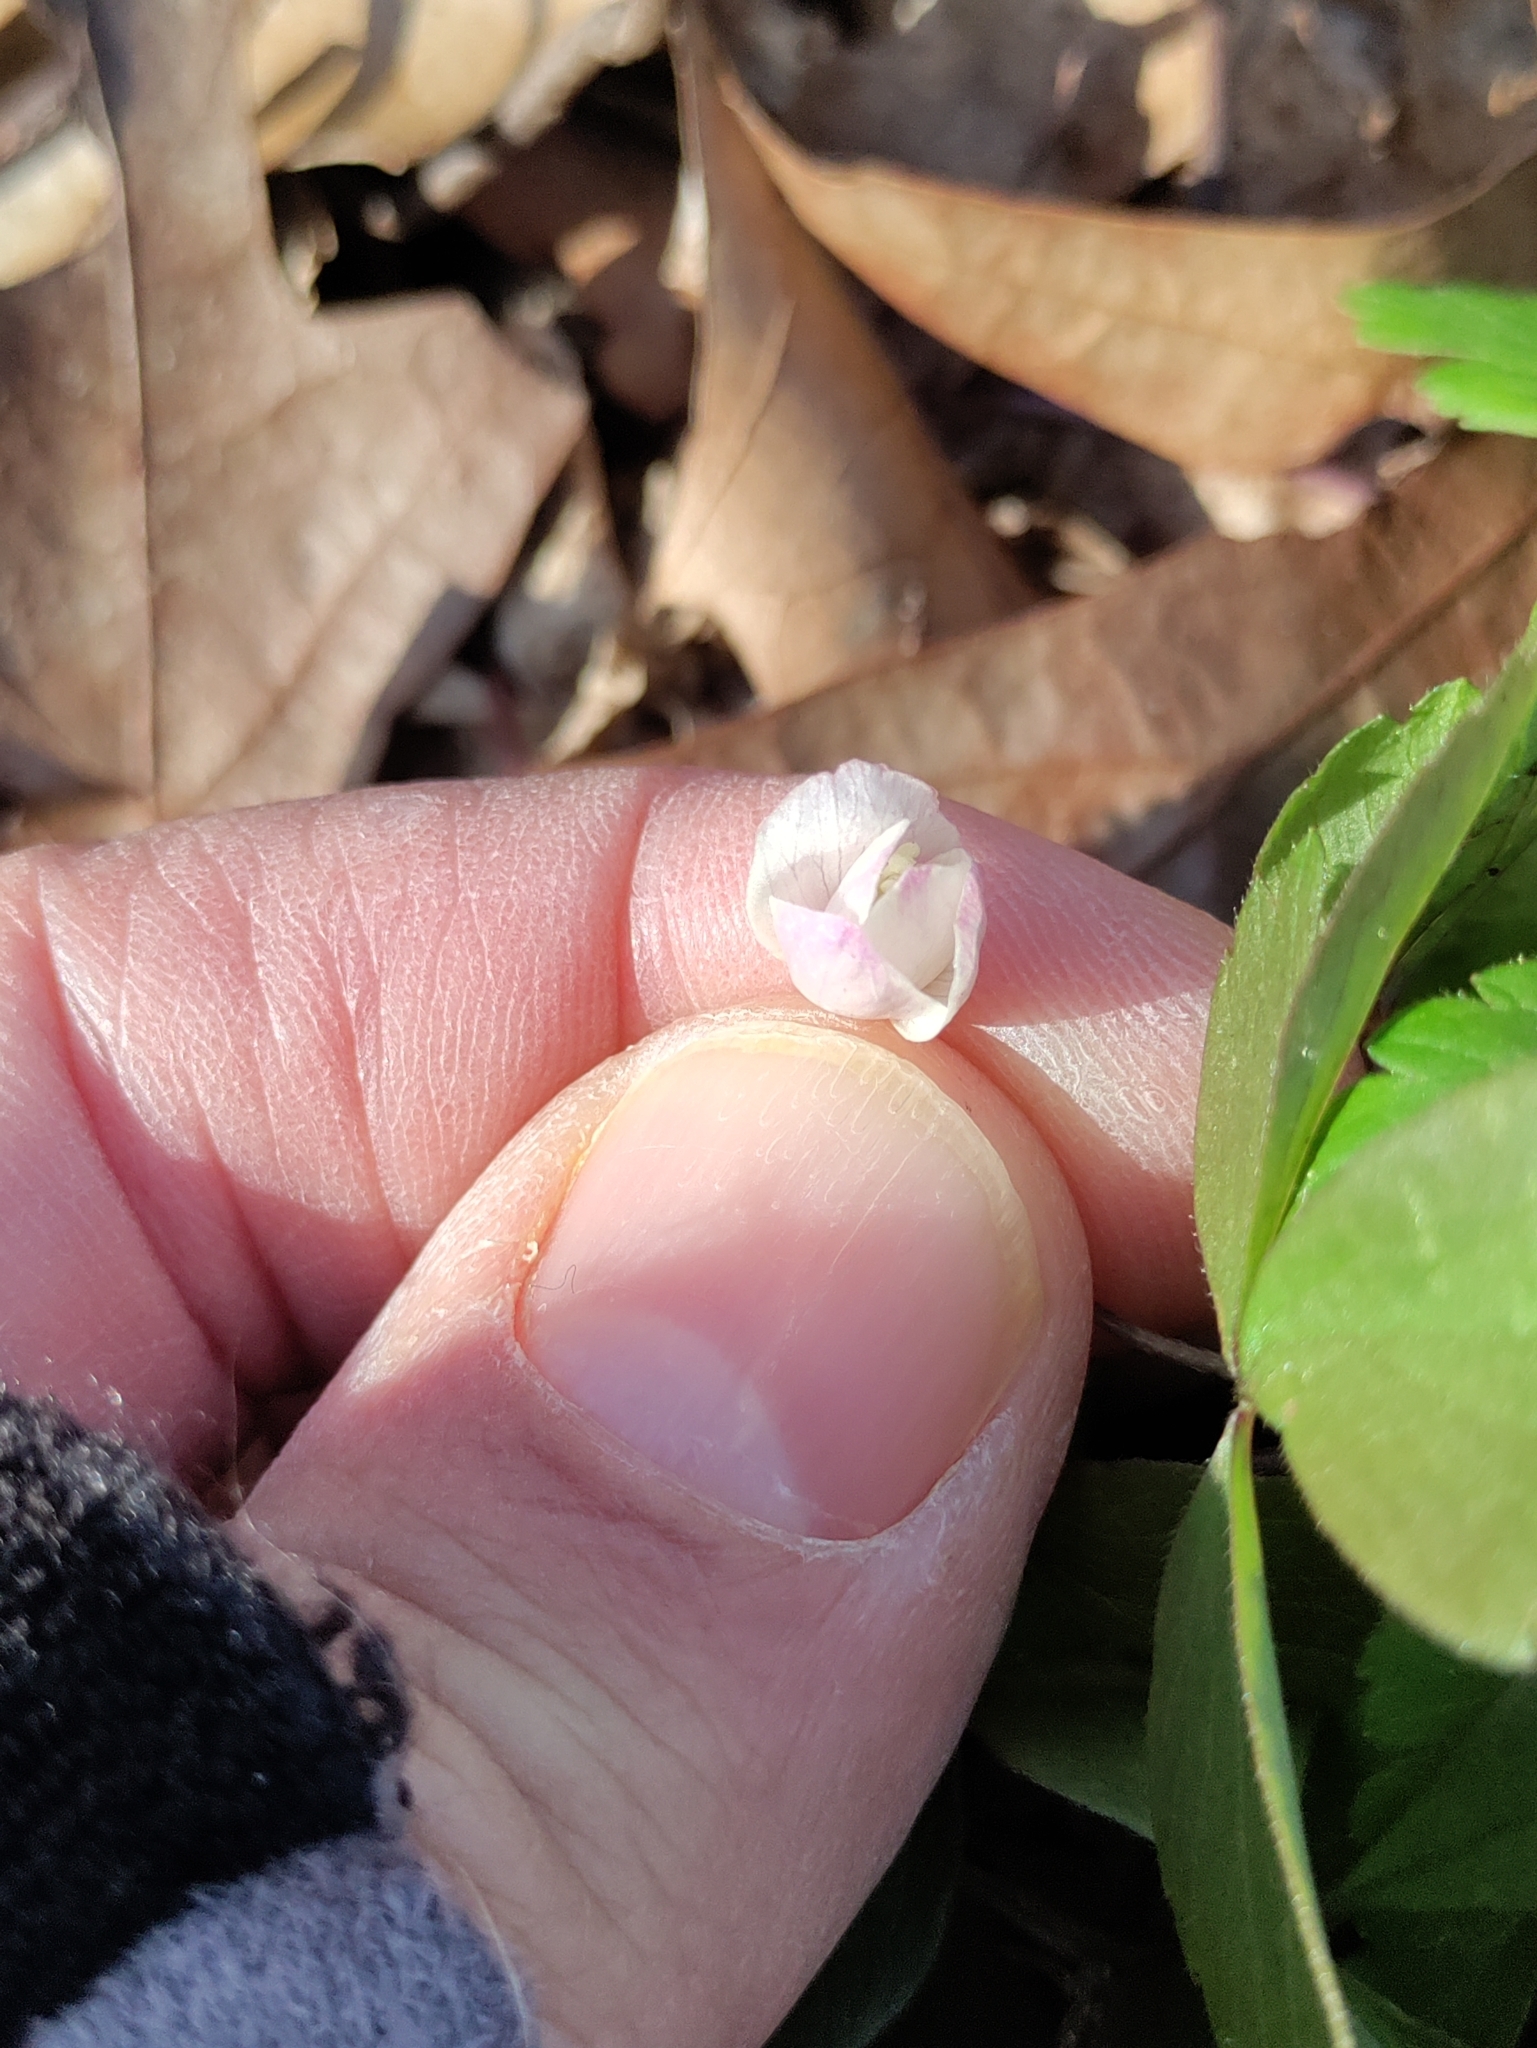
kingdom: Plantae
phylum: Tracheophyta
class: Magnoliopsida
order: Ranunculales
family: Ranunculaceae
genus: Anemone
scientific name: Anemone quinquefolia
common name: Wood anemone
